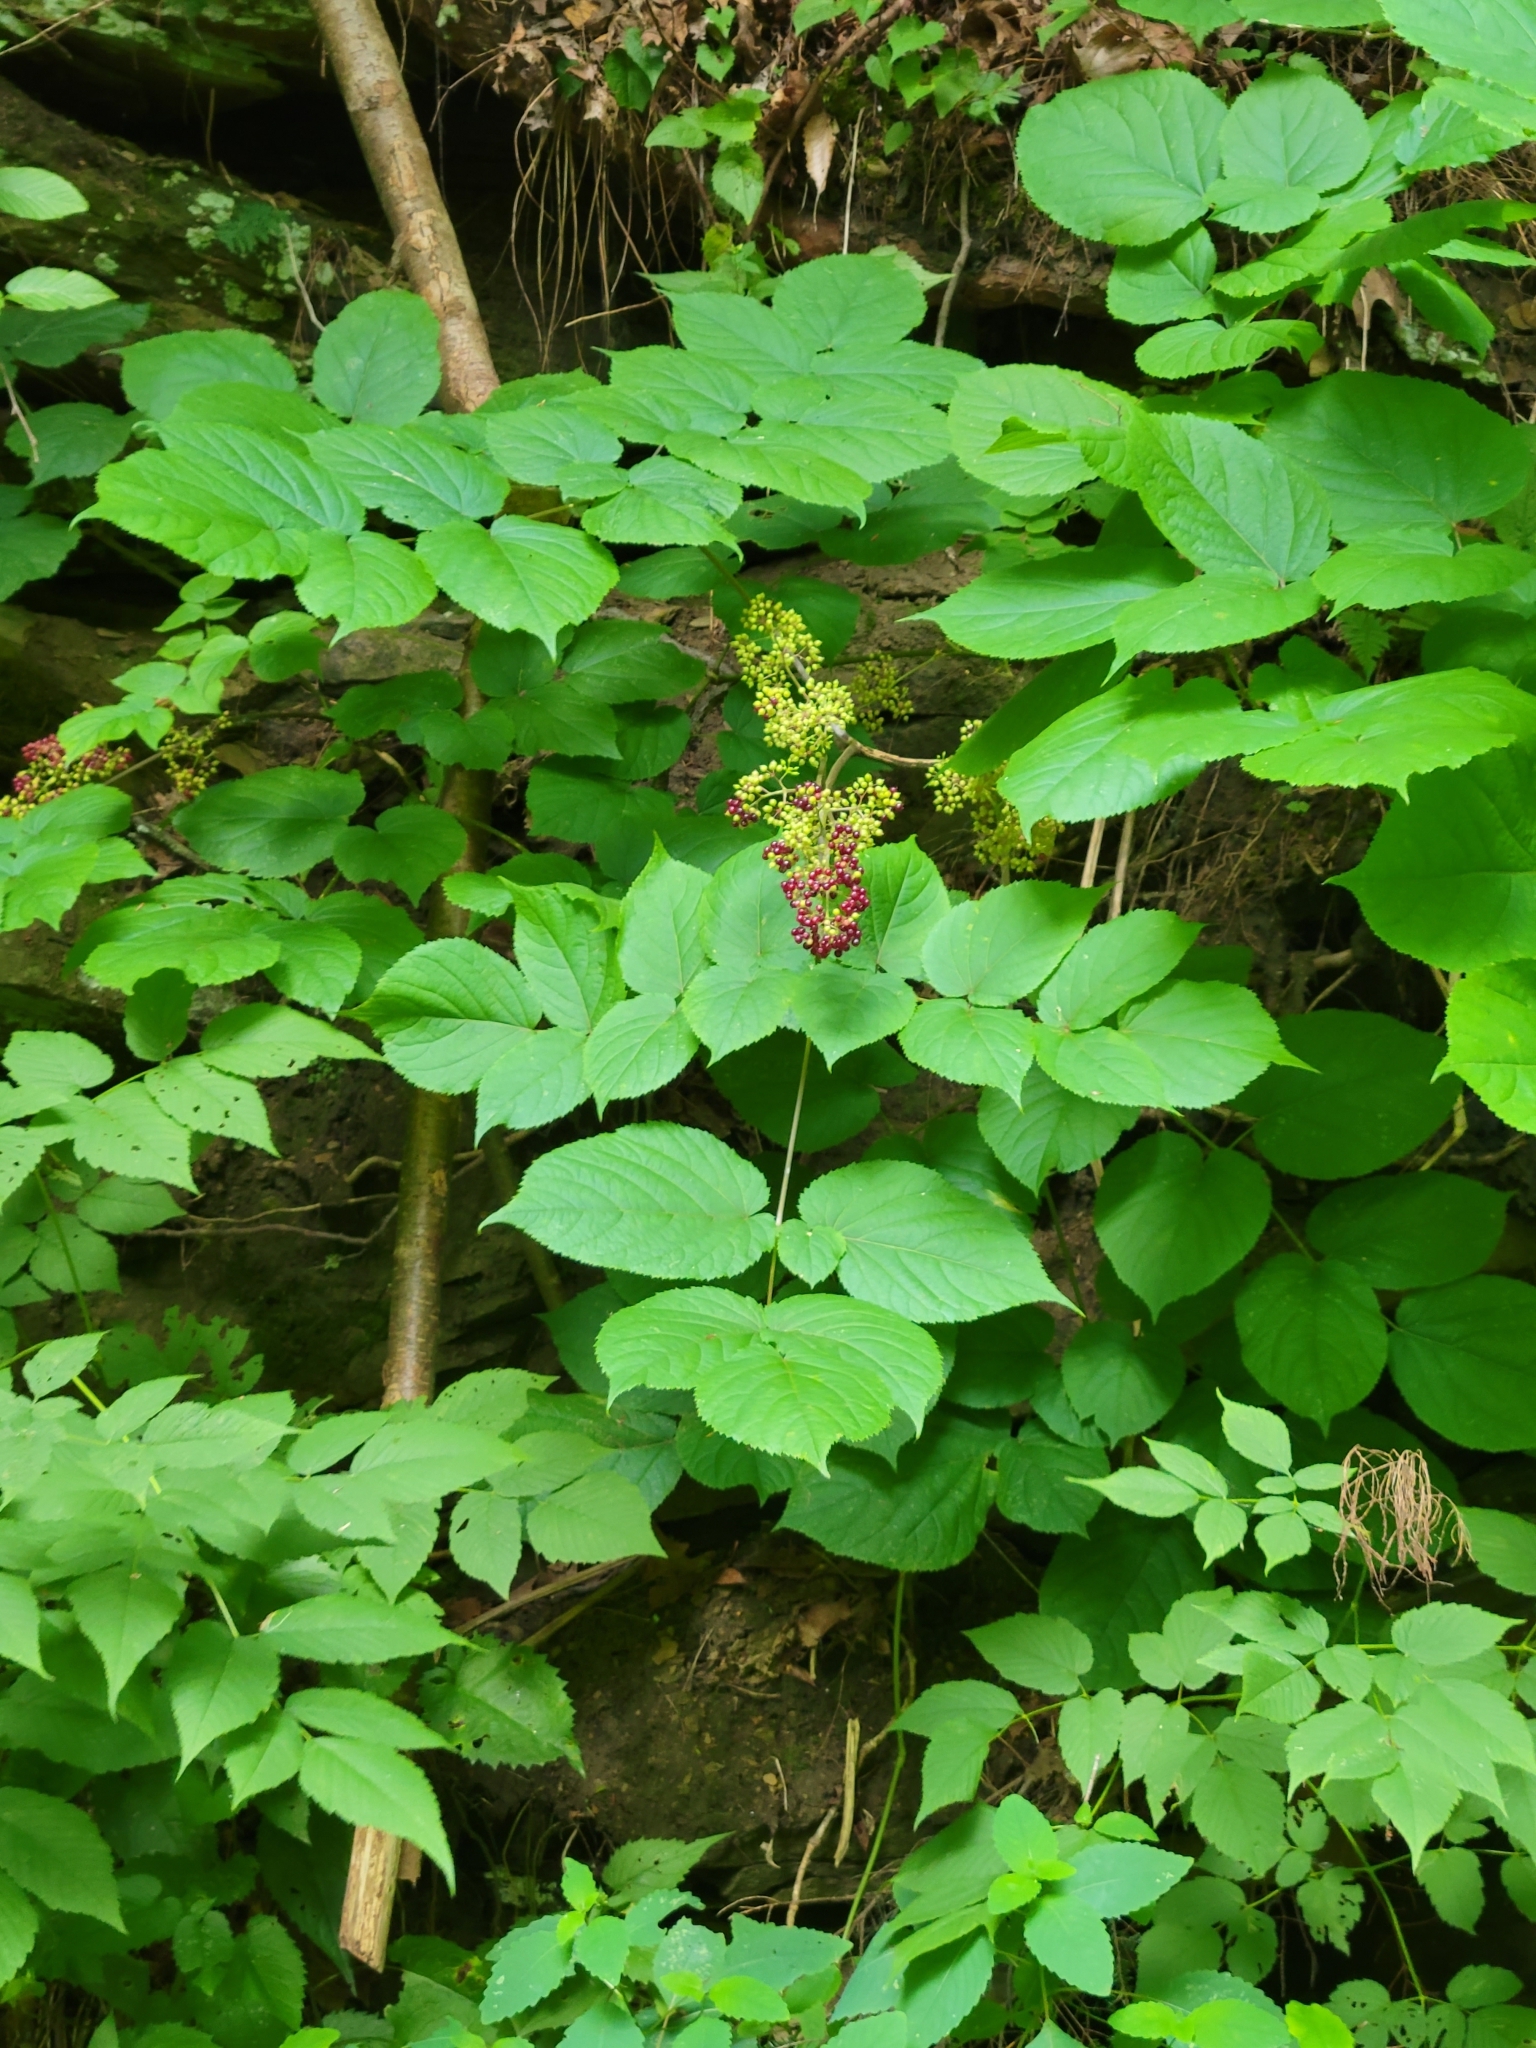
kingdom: Plantae
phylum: Tracheophyta
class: Magnoliopsida
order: Apiales
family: Araliaceae
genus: Aralia
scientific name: Aralia racemosa
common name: American-spikenard
